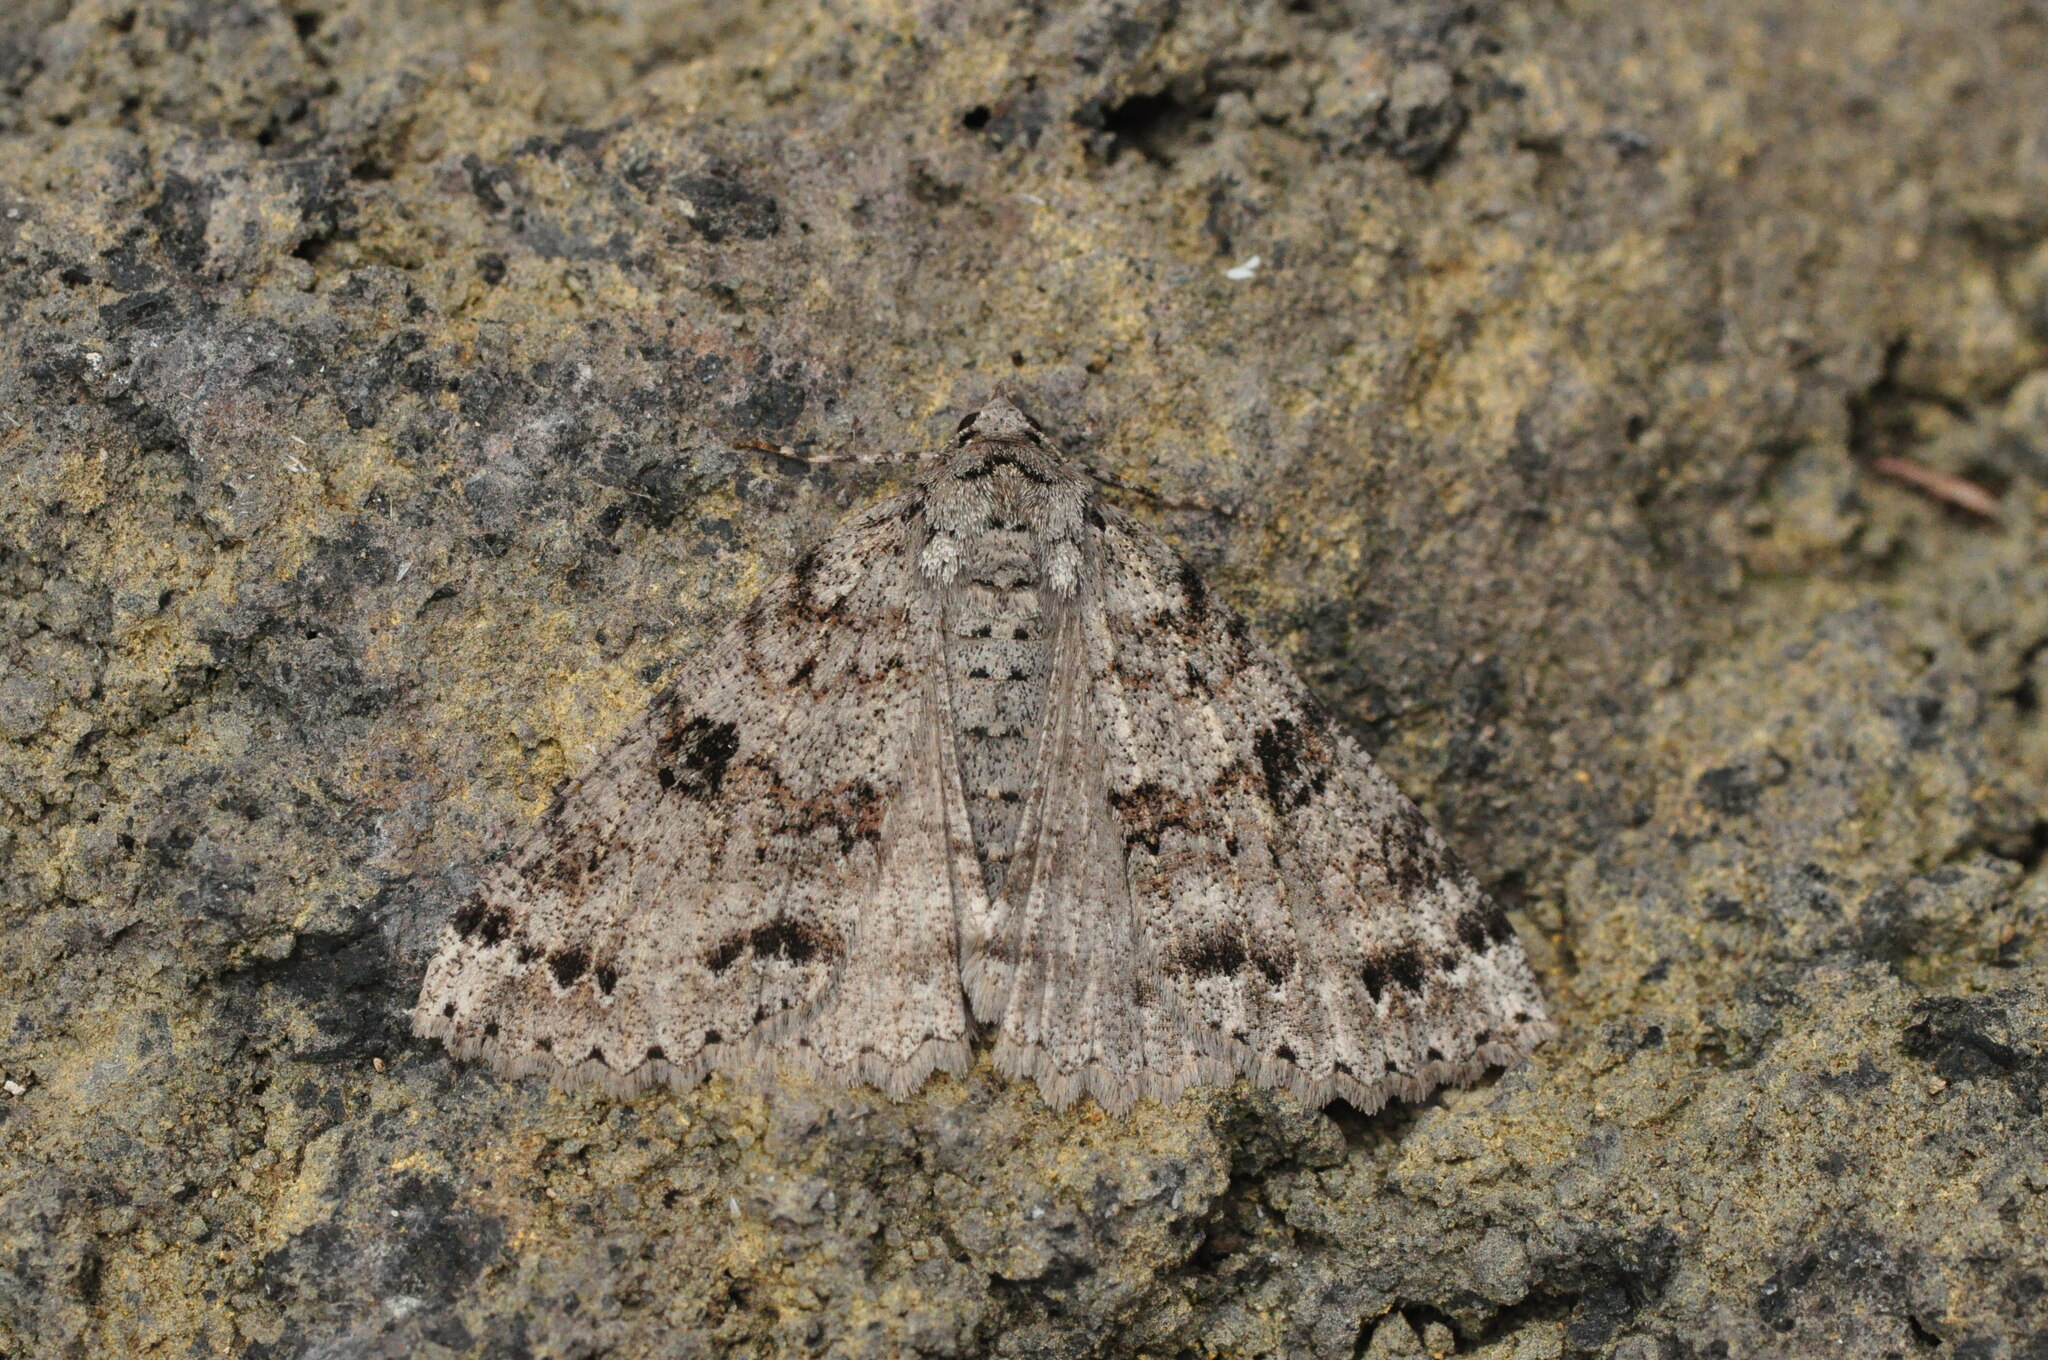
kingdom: Animalia
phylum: Arthropoda
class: Insecta
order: Lepidoptera
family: Geometridae
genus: Ascotis
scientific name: Ascotis fortunata
